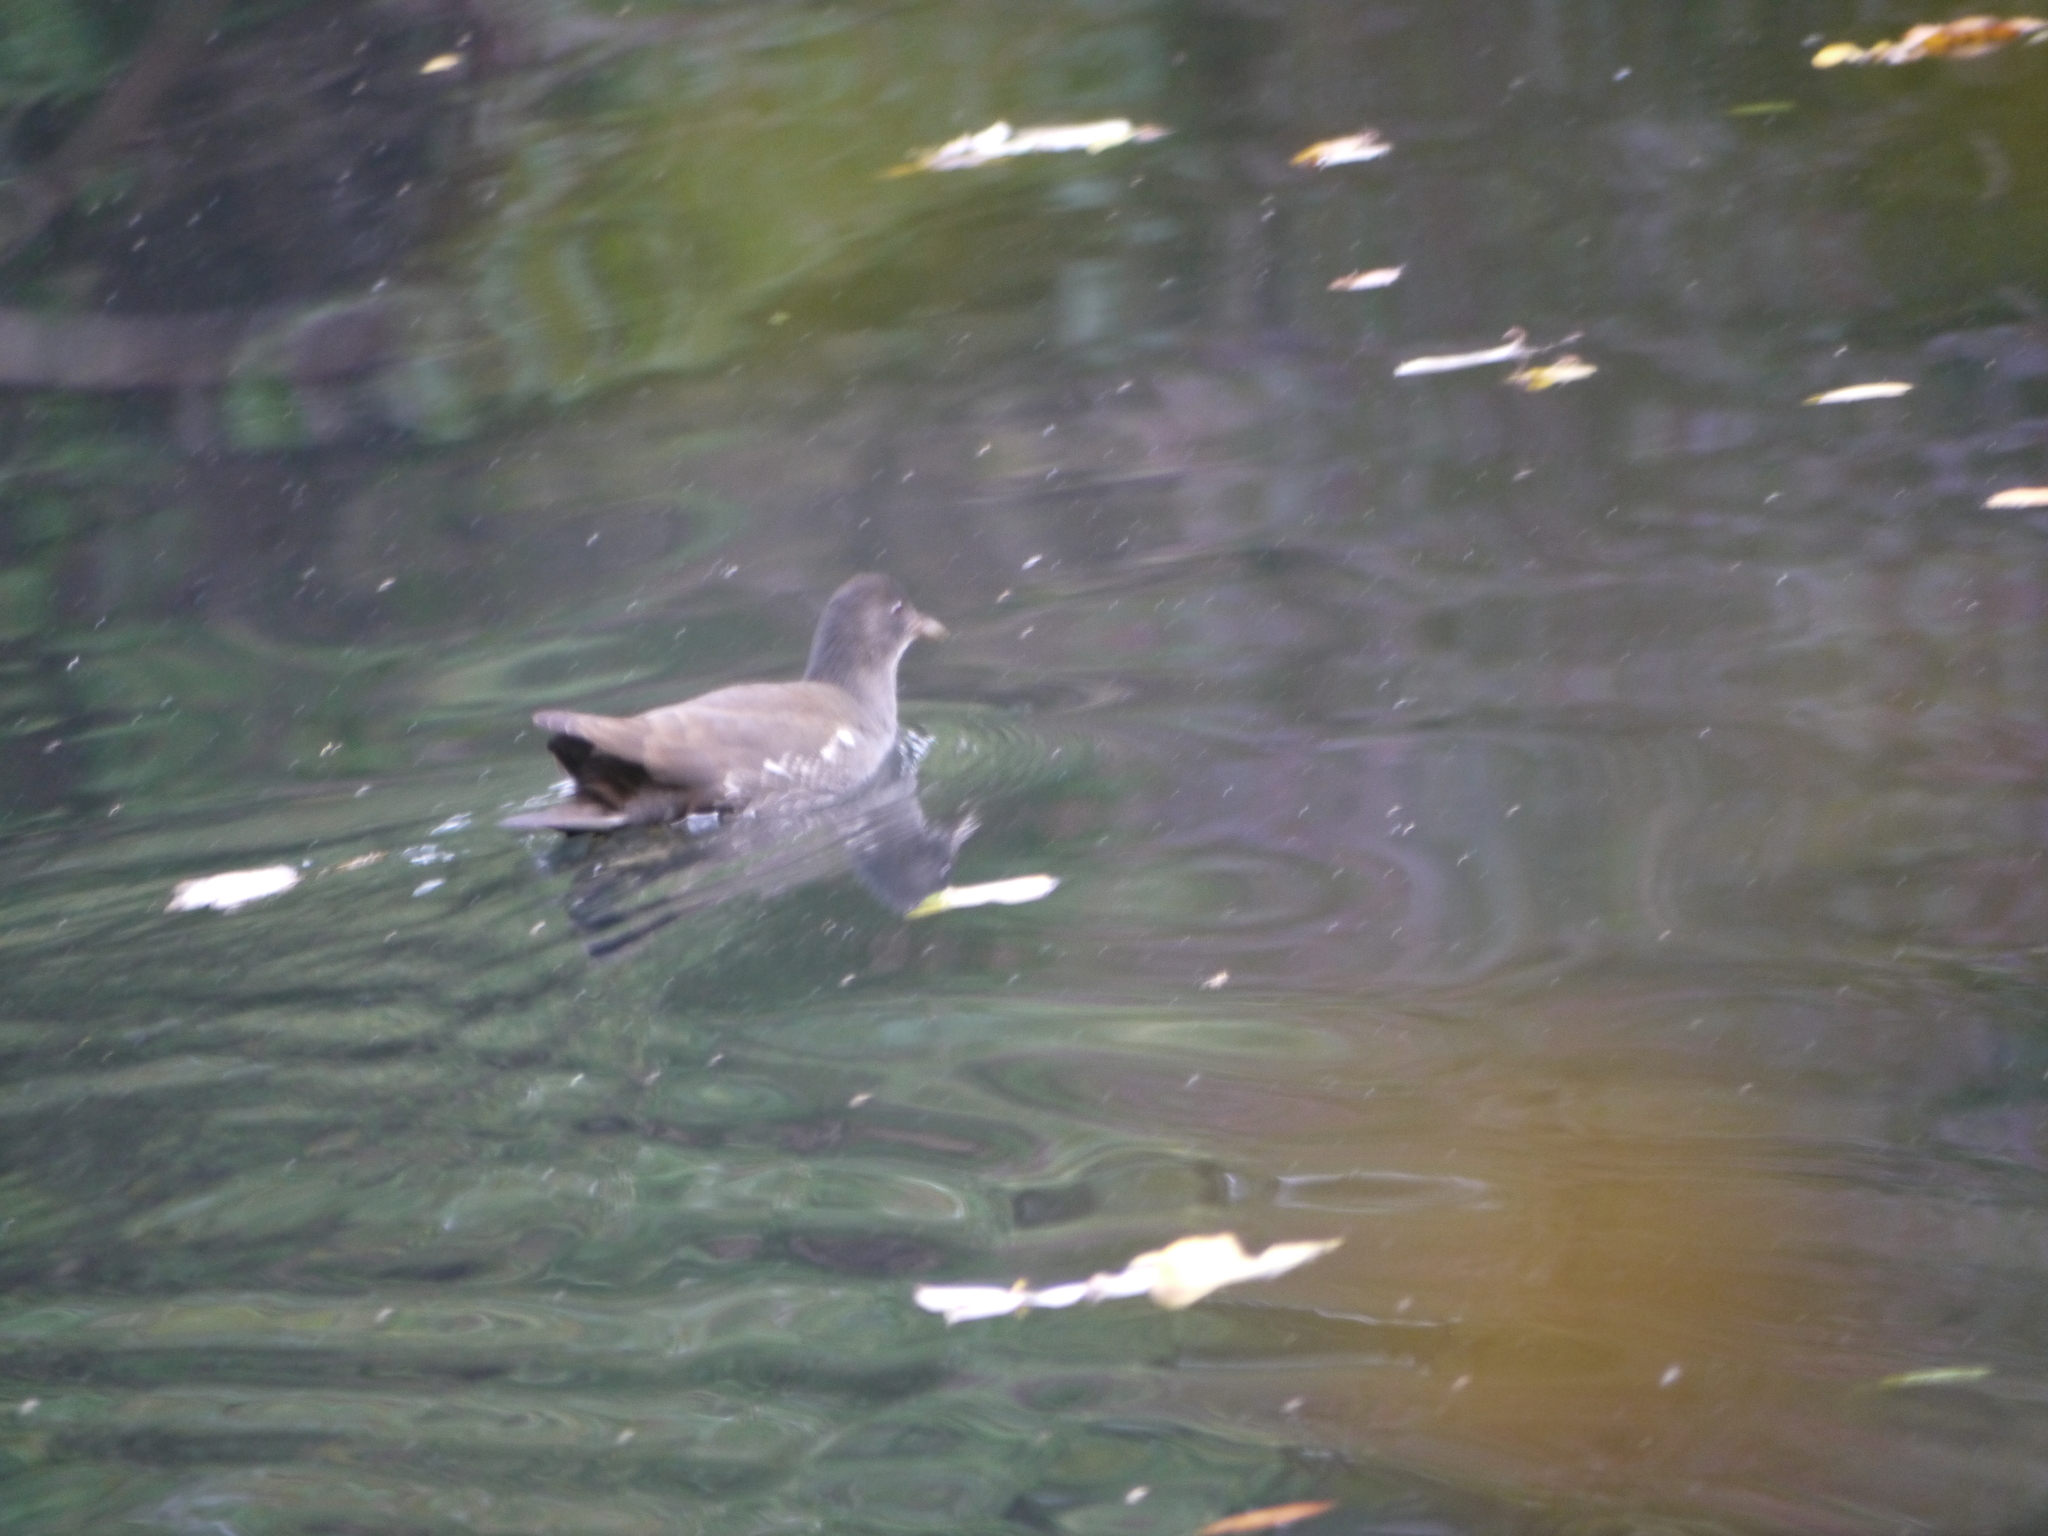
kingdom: Animalia
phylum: Chordata
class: Aves
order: Gruiformes
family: Rallidae
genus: Gallinula
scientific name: Gallinula chloropus
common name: Common moorhen
